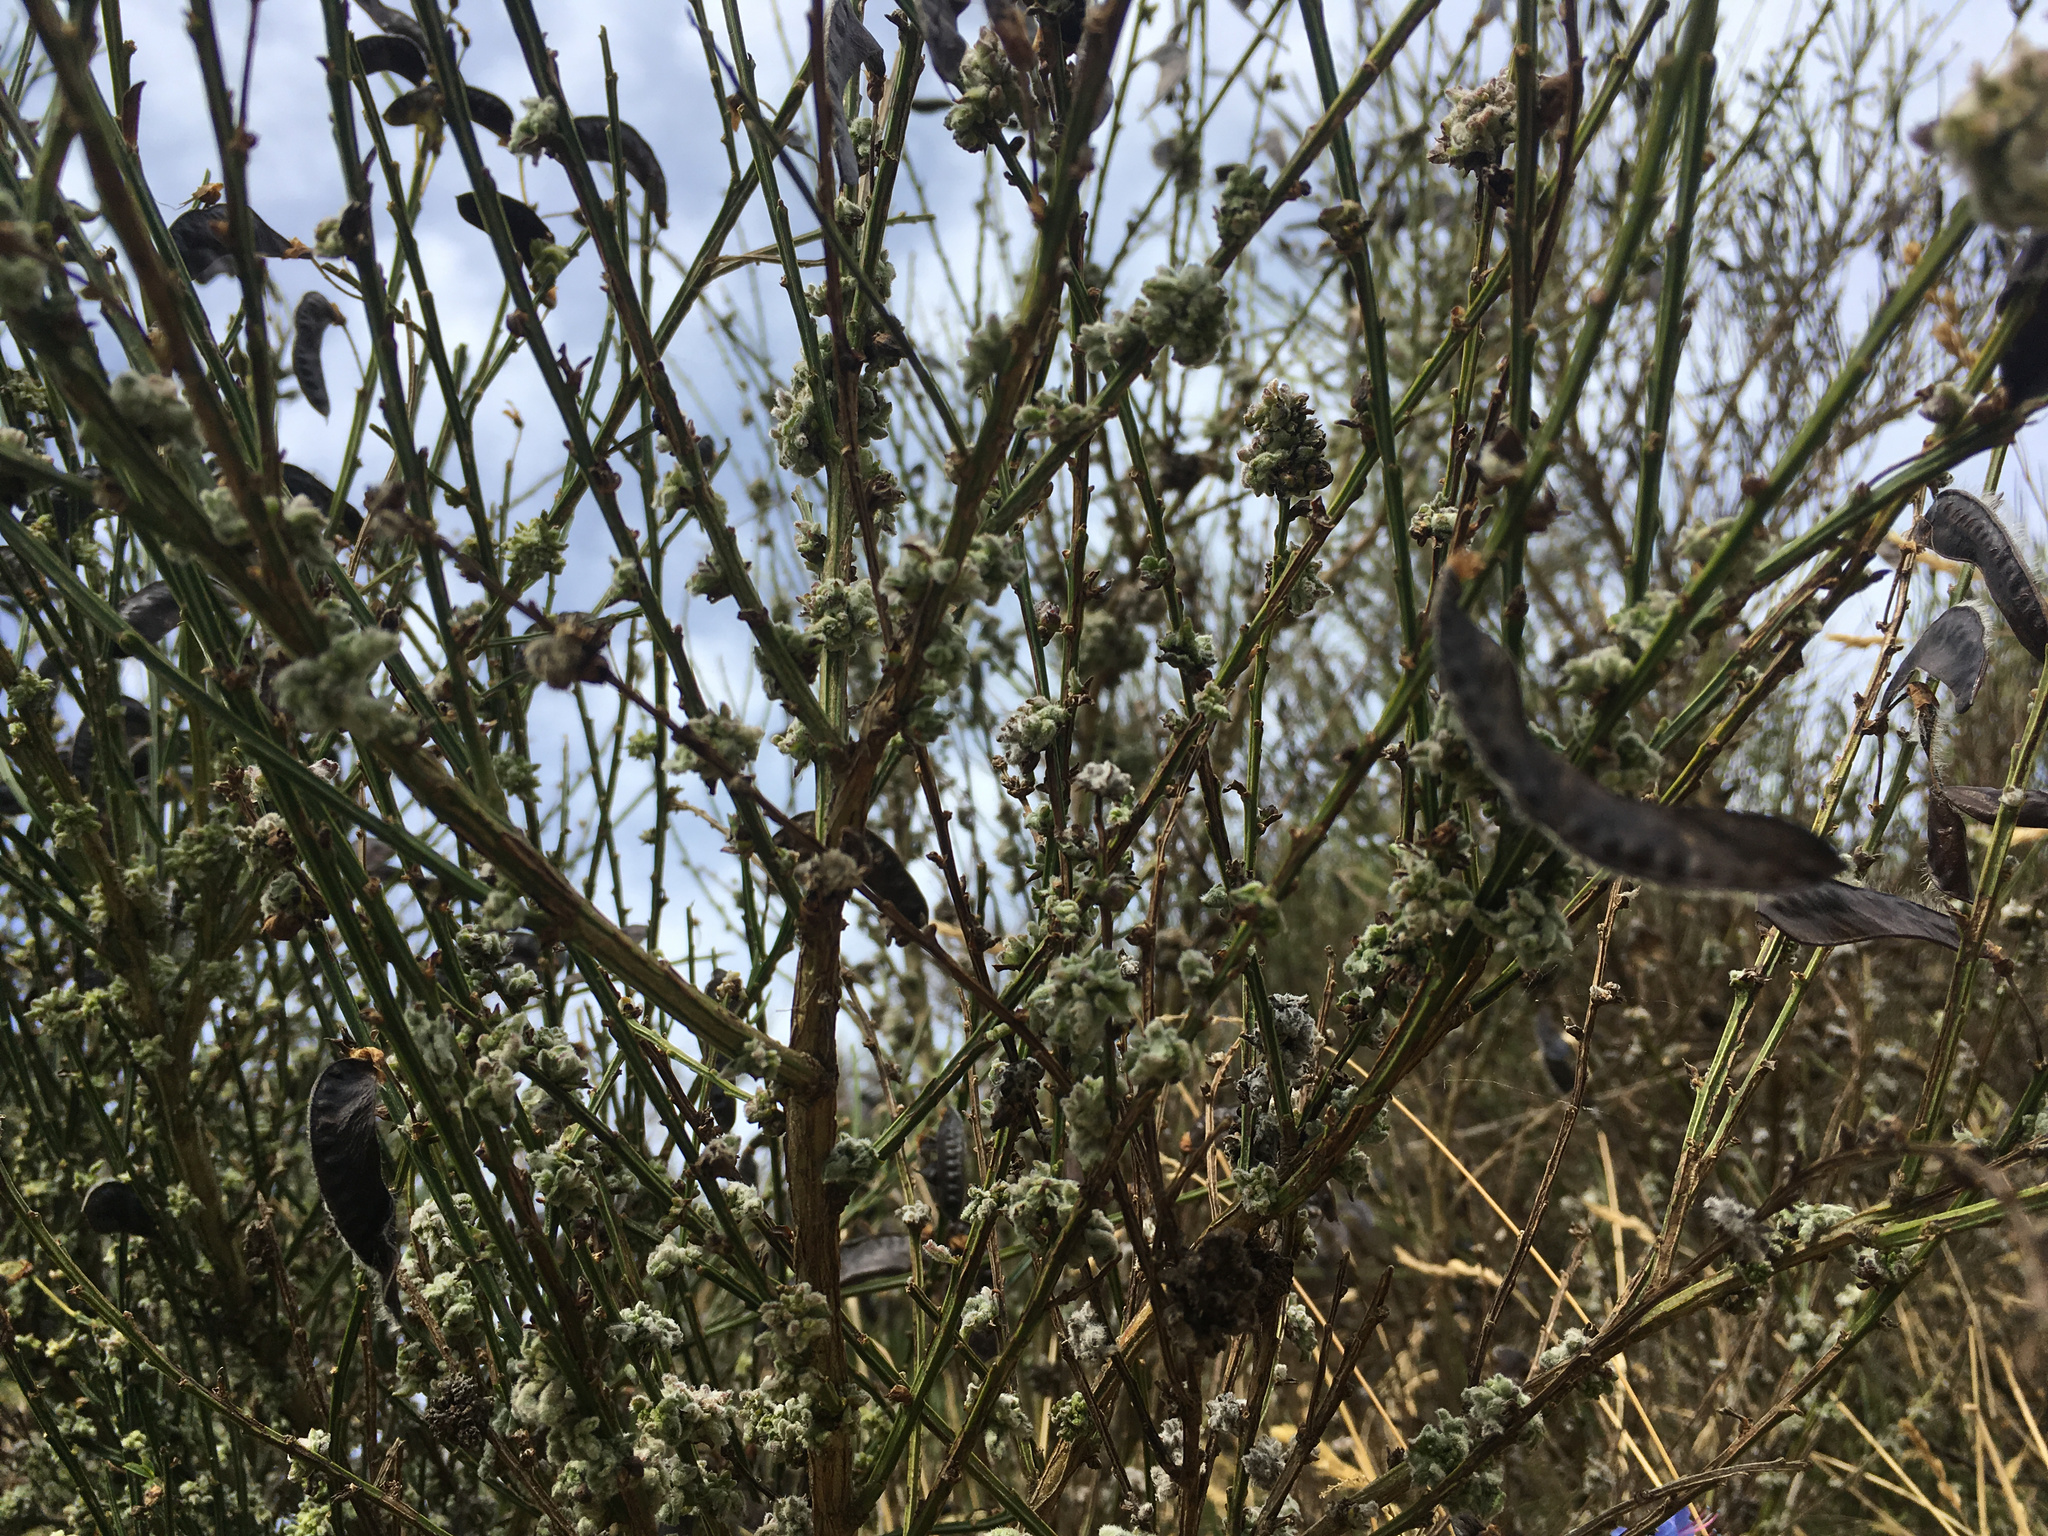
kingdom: Animalia
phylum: Arthropoda
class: Arachnida
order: Trombidiformes
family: Eriophyidae
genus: Aceria
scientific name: Aceria genistae
